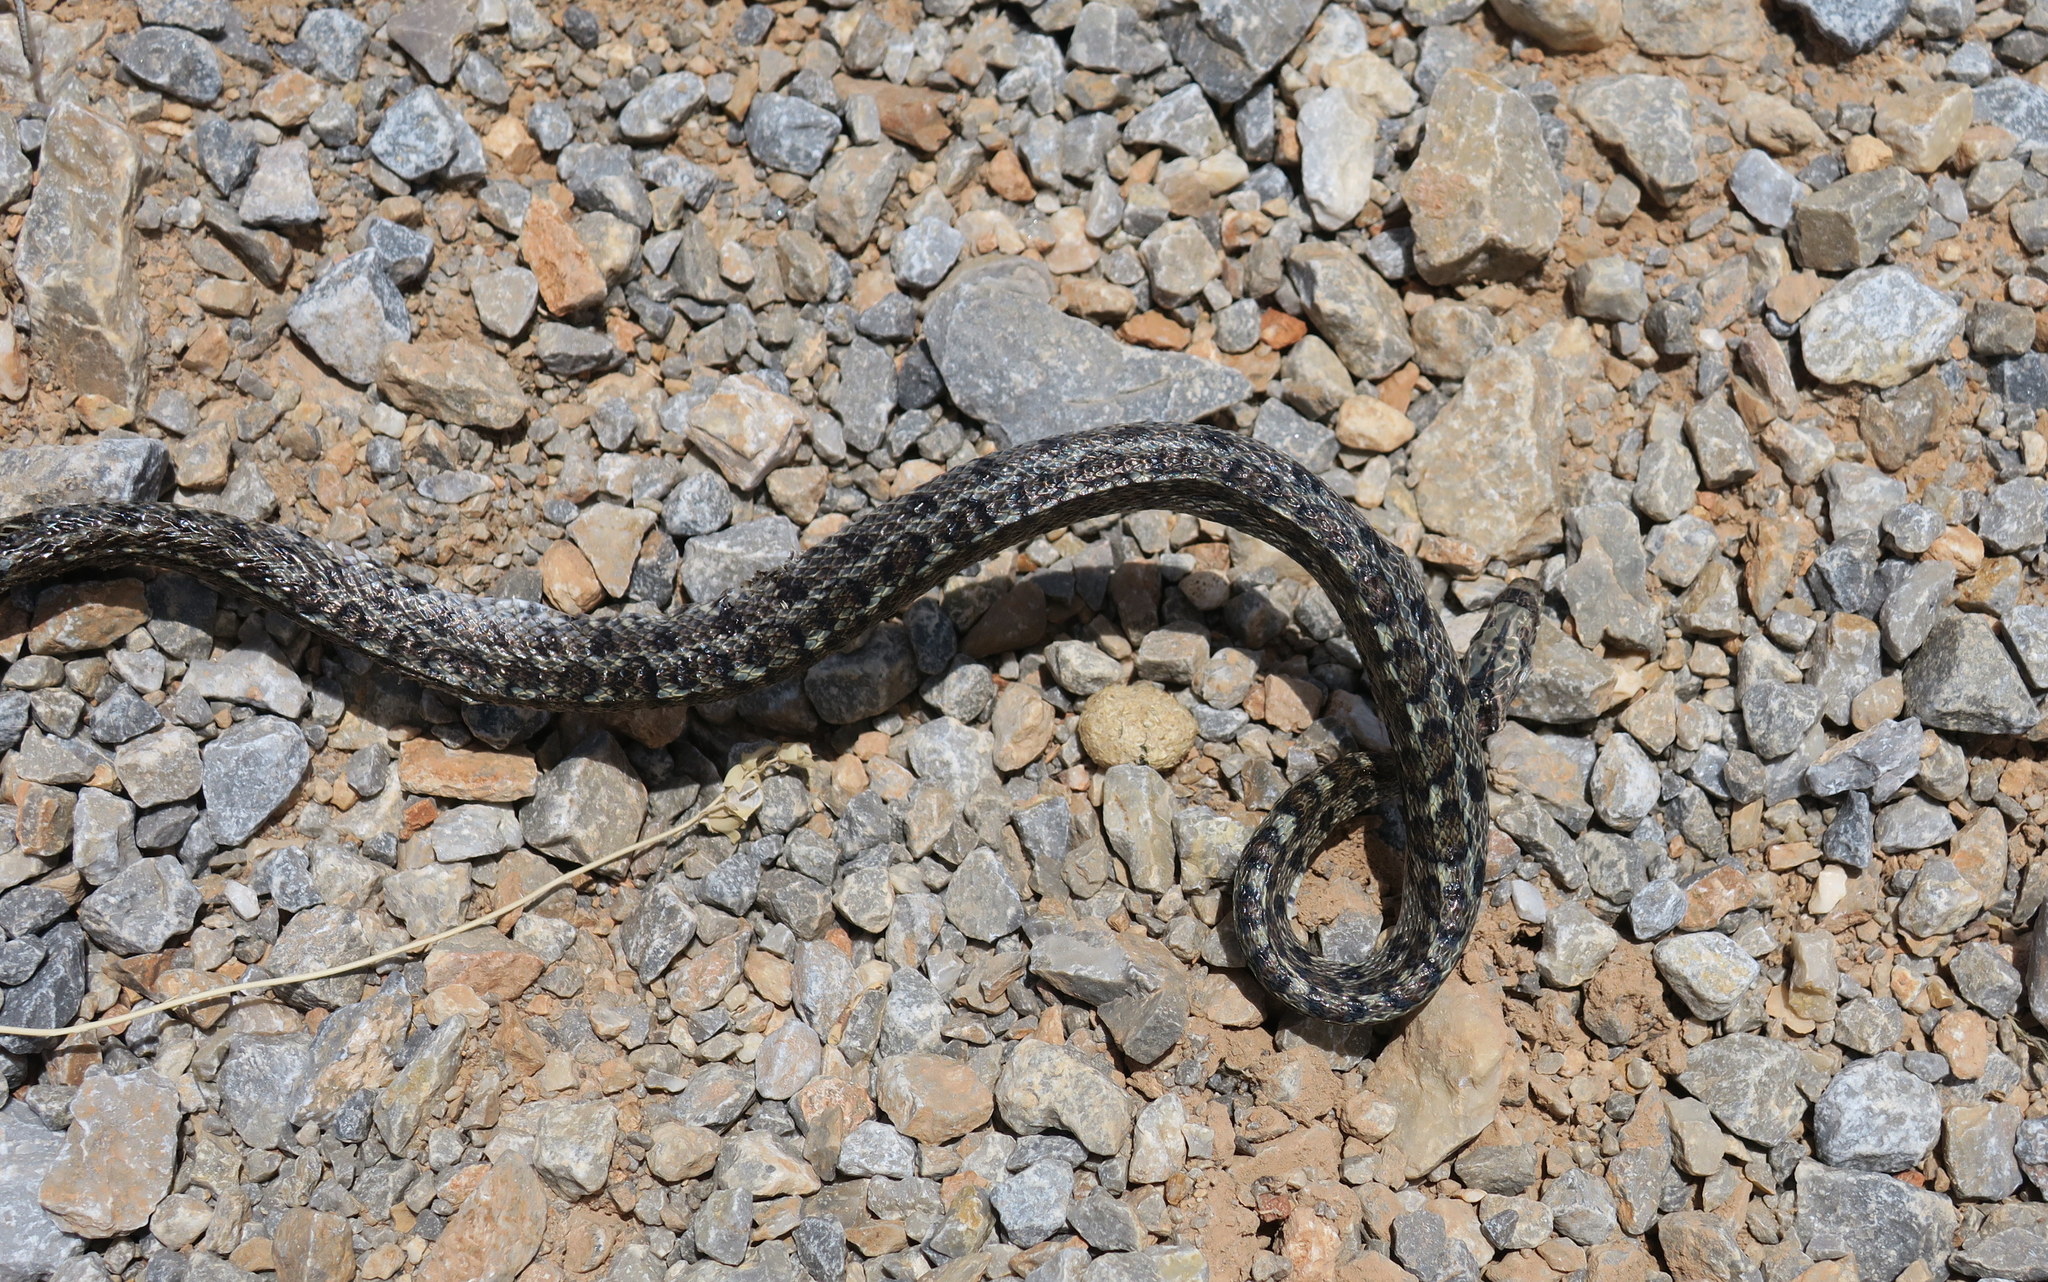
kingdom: Animalia
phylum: Chordata
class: Squamata
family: Colubridae
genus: Zamenis
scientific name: Zamenis situla
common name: European ratsnake
